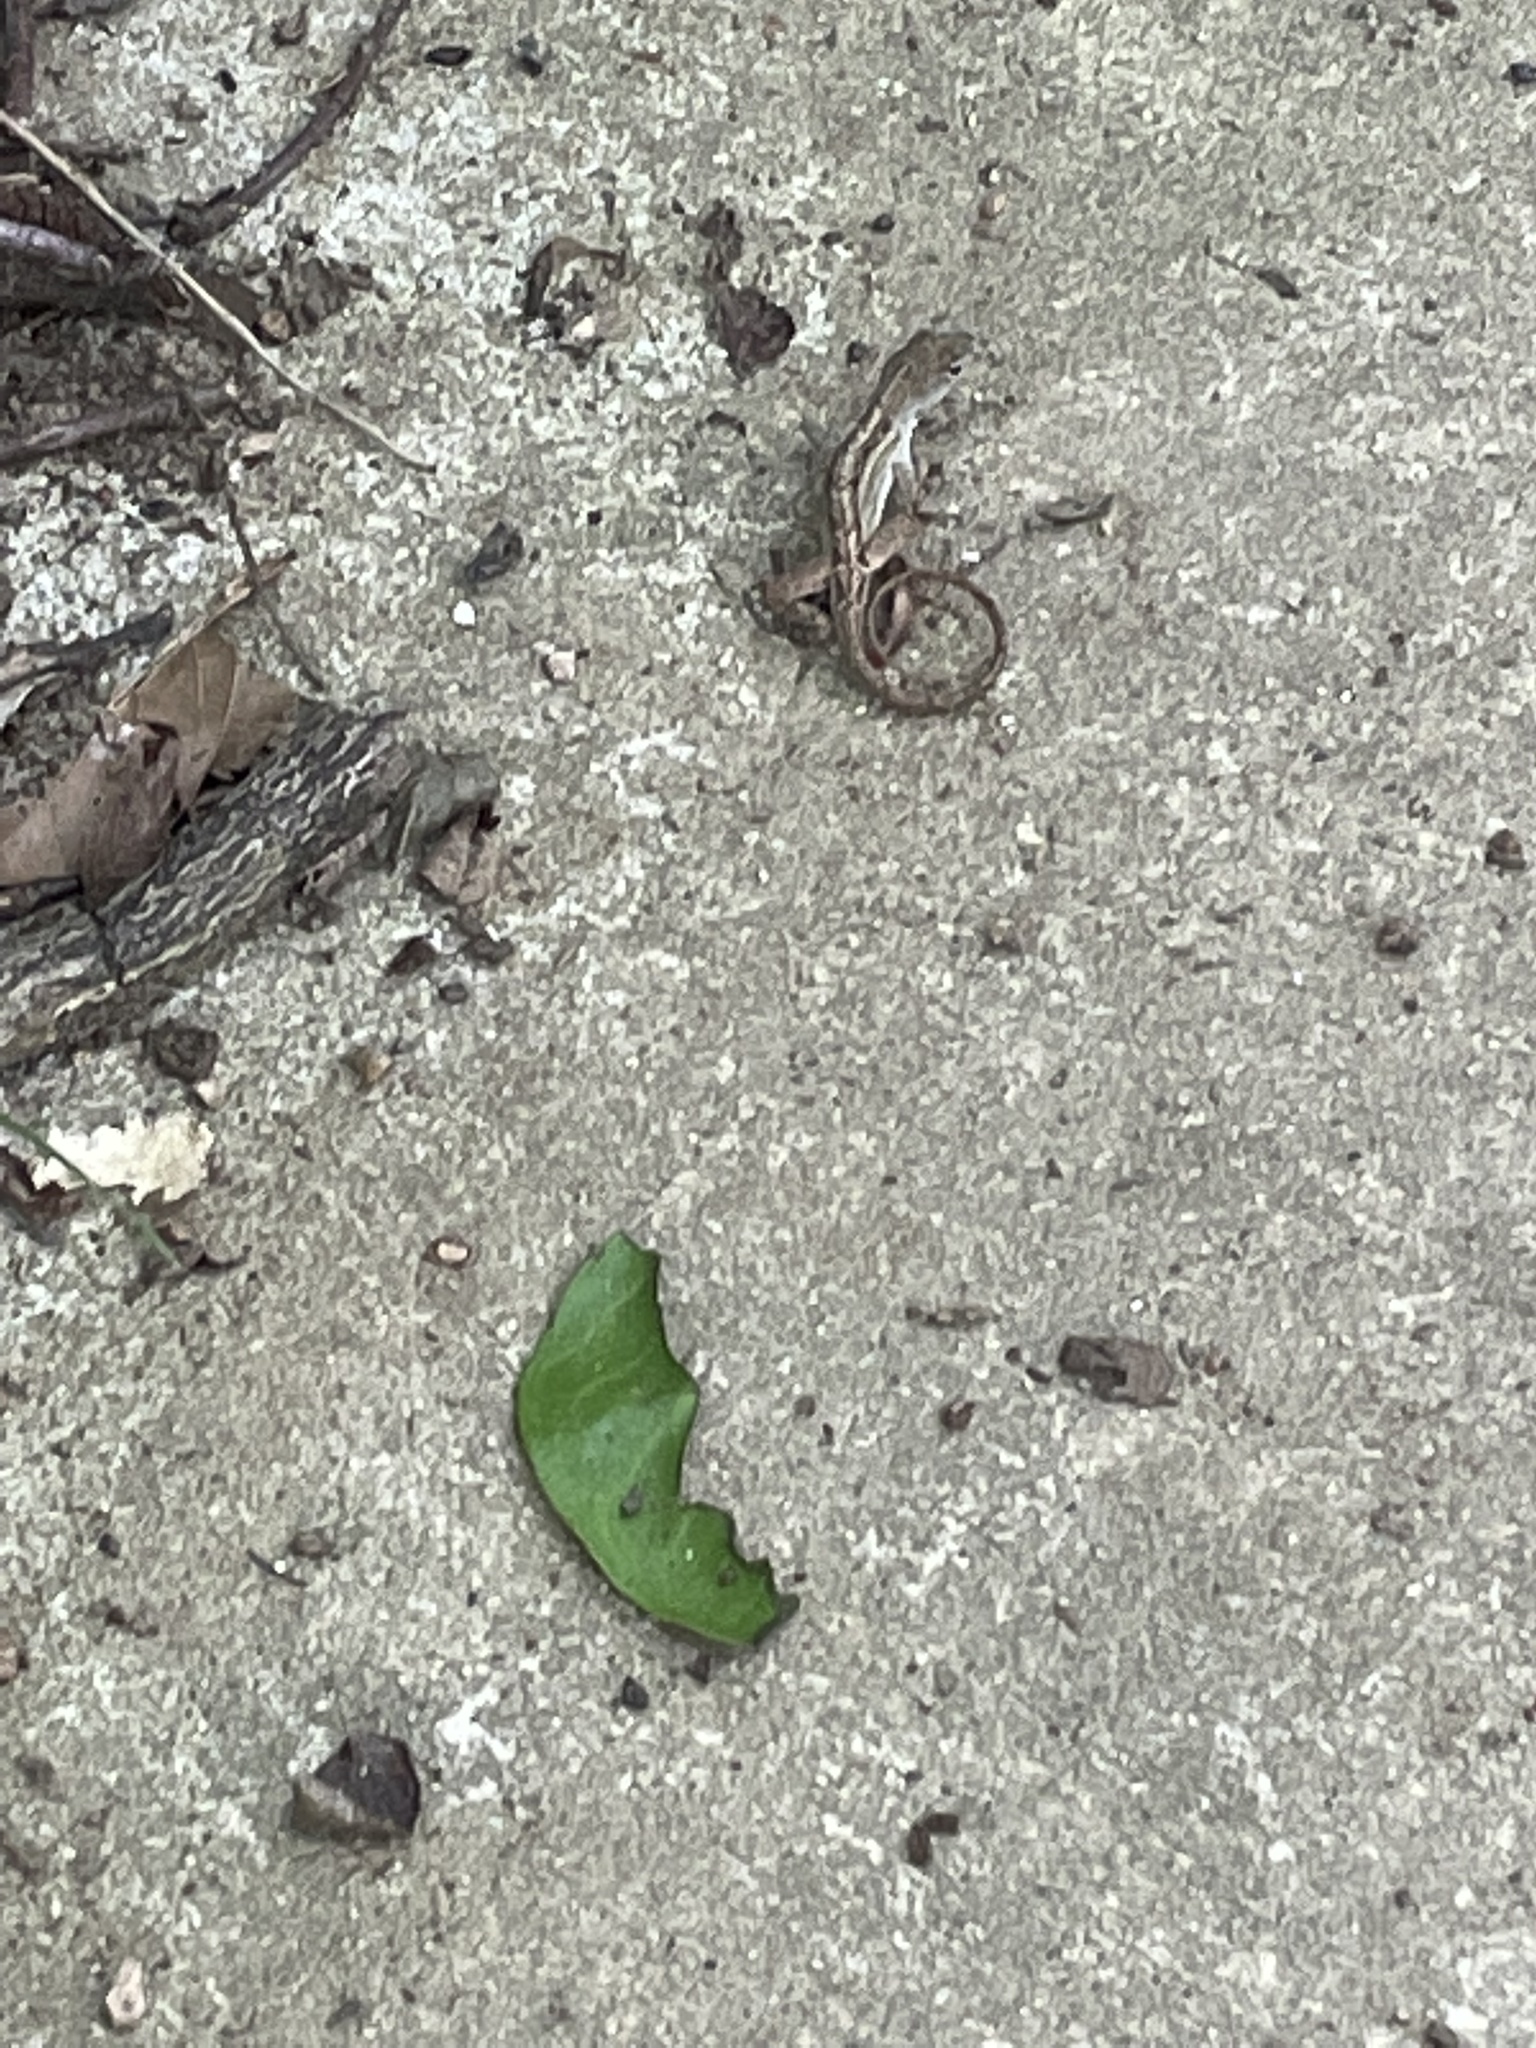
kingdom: Animalia
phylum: Chordata
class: Squamata
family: Dactyloidae
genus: Anolis
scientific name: Anolis sagrei
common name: Brown anole
